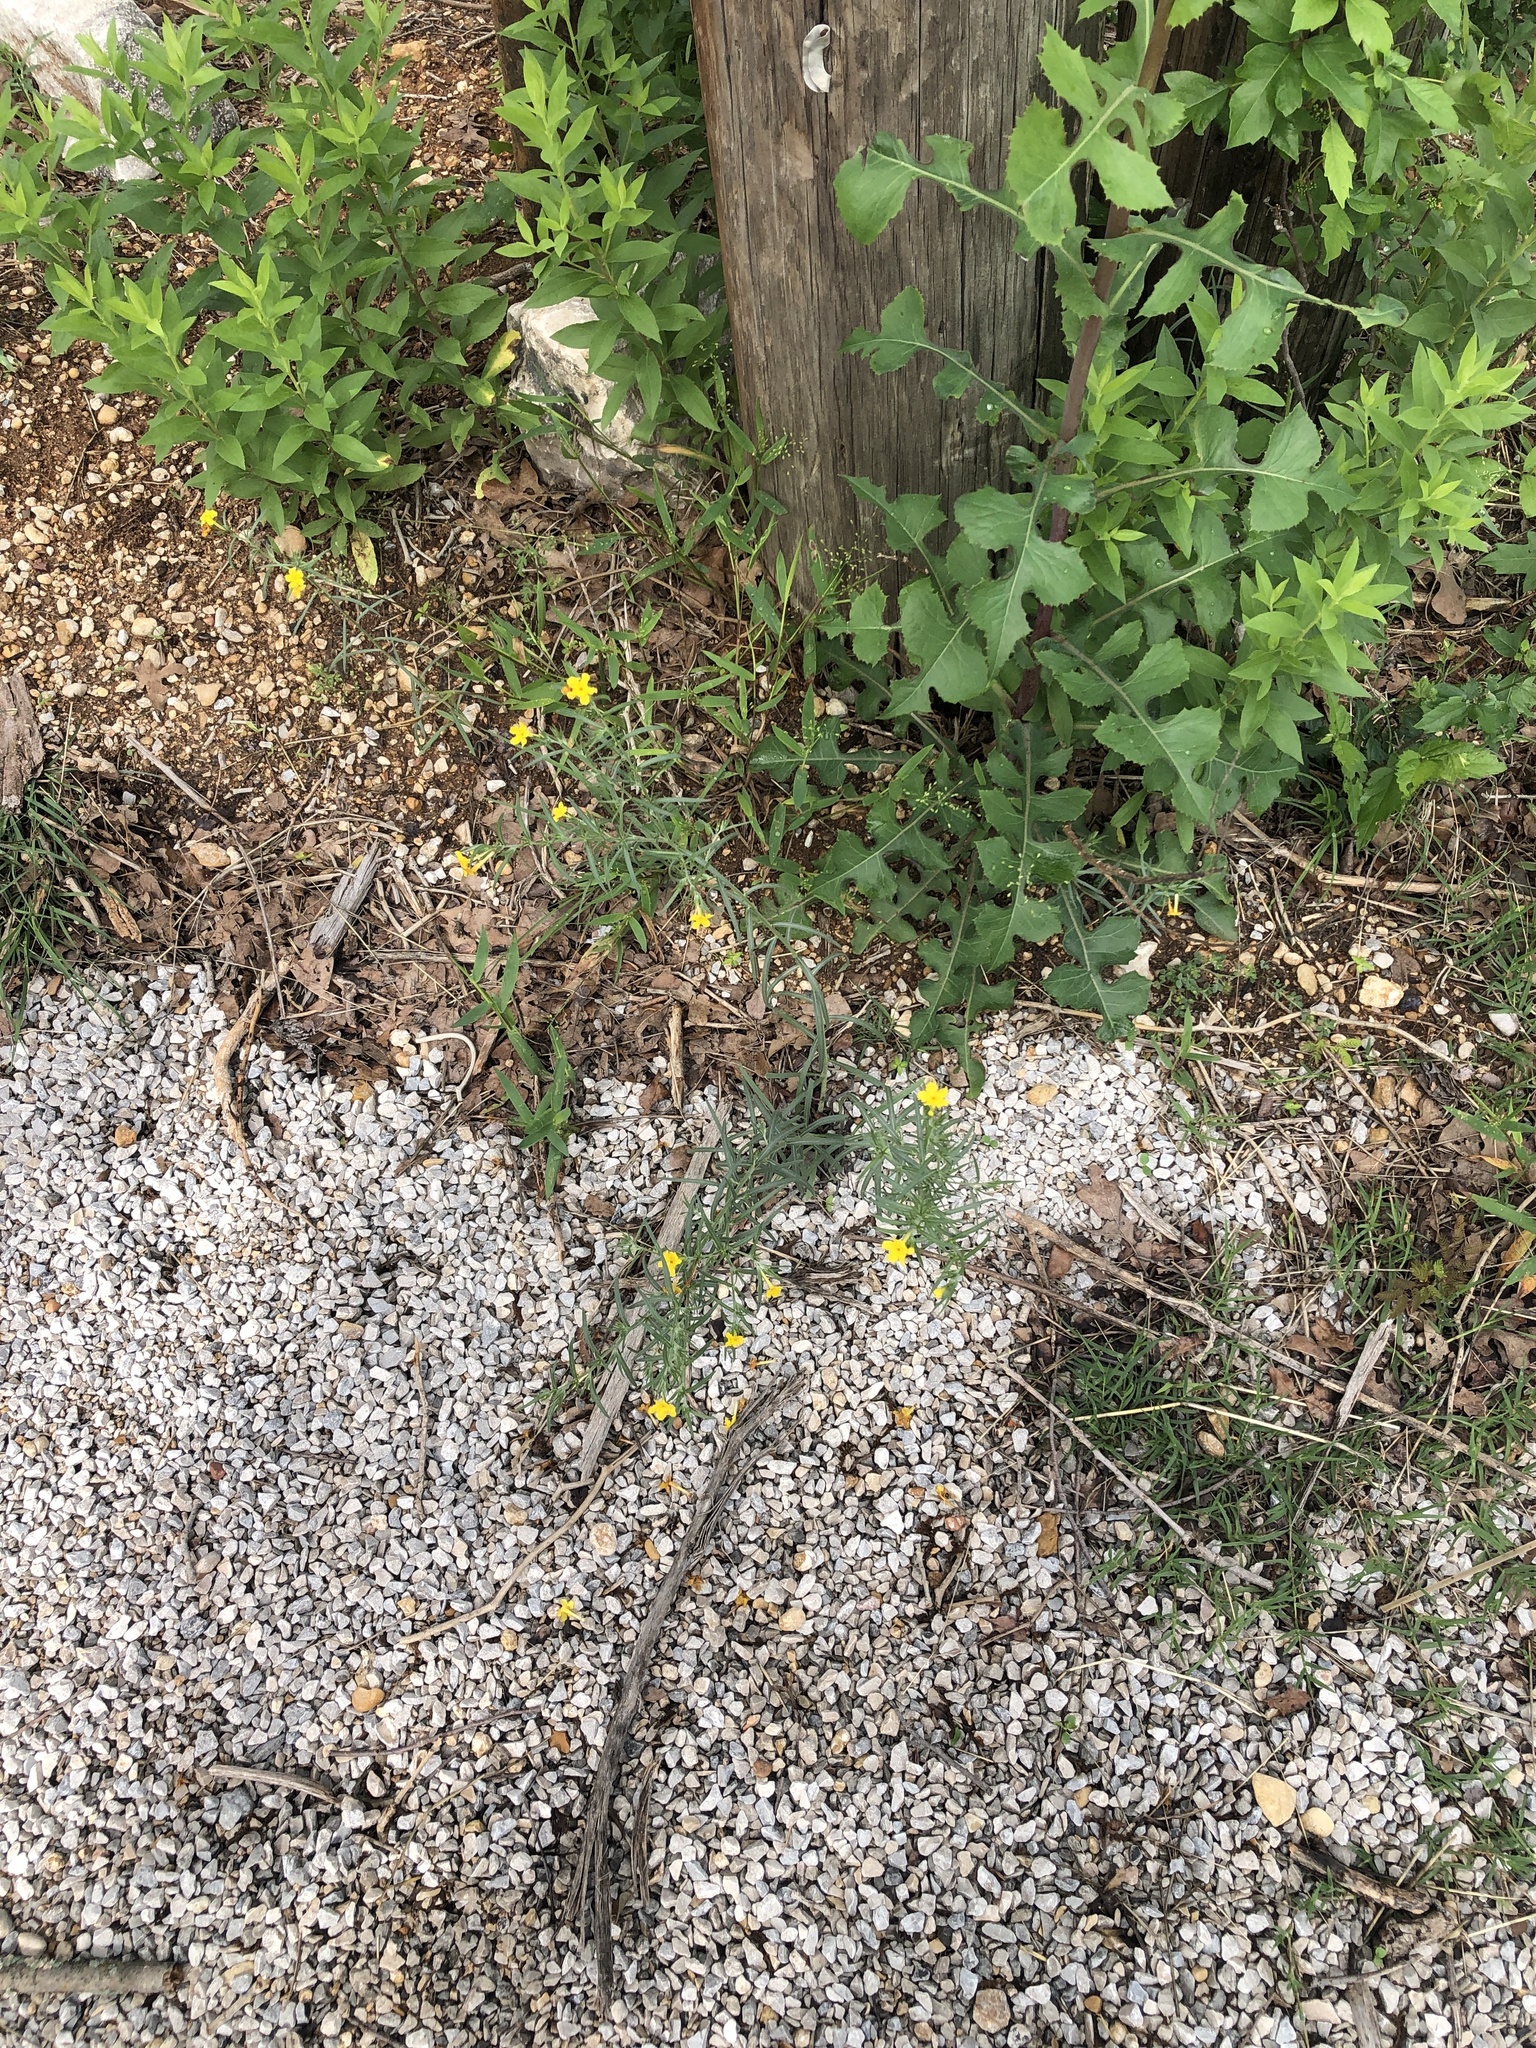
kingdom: Plantae
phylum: Tracheophyta
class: Magnoliopsida
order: Boraginales
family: Boraginaceae
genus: Lithospermum
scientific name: Lithospermum incisum
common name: Fringed gromwell
